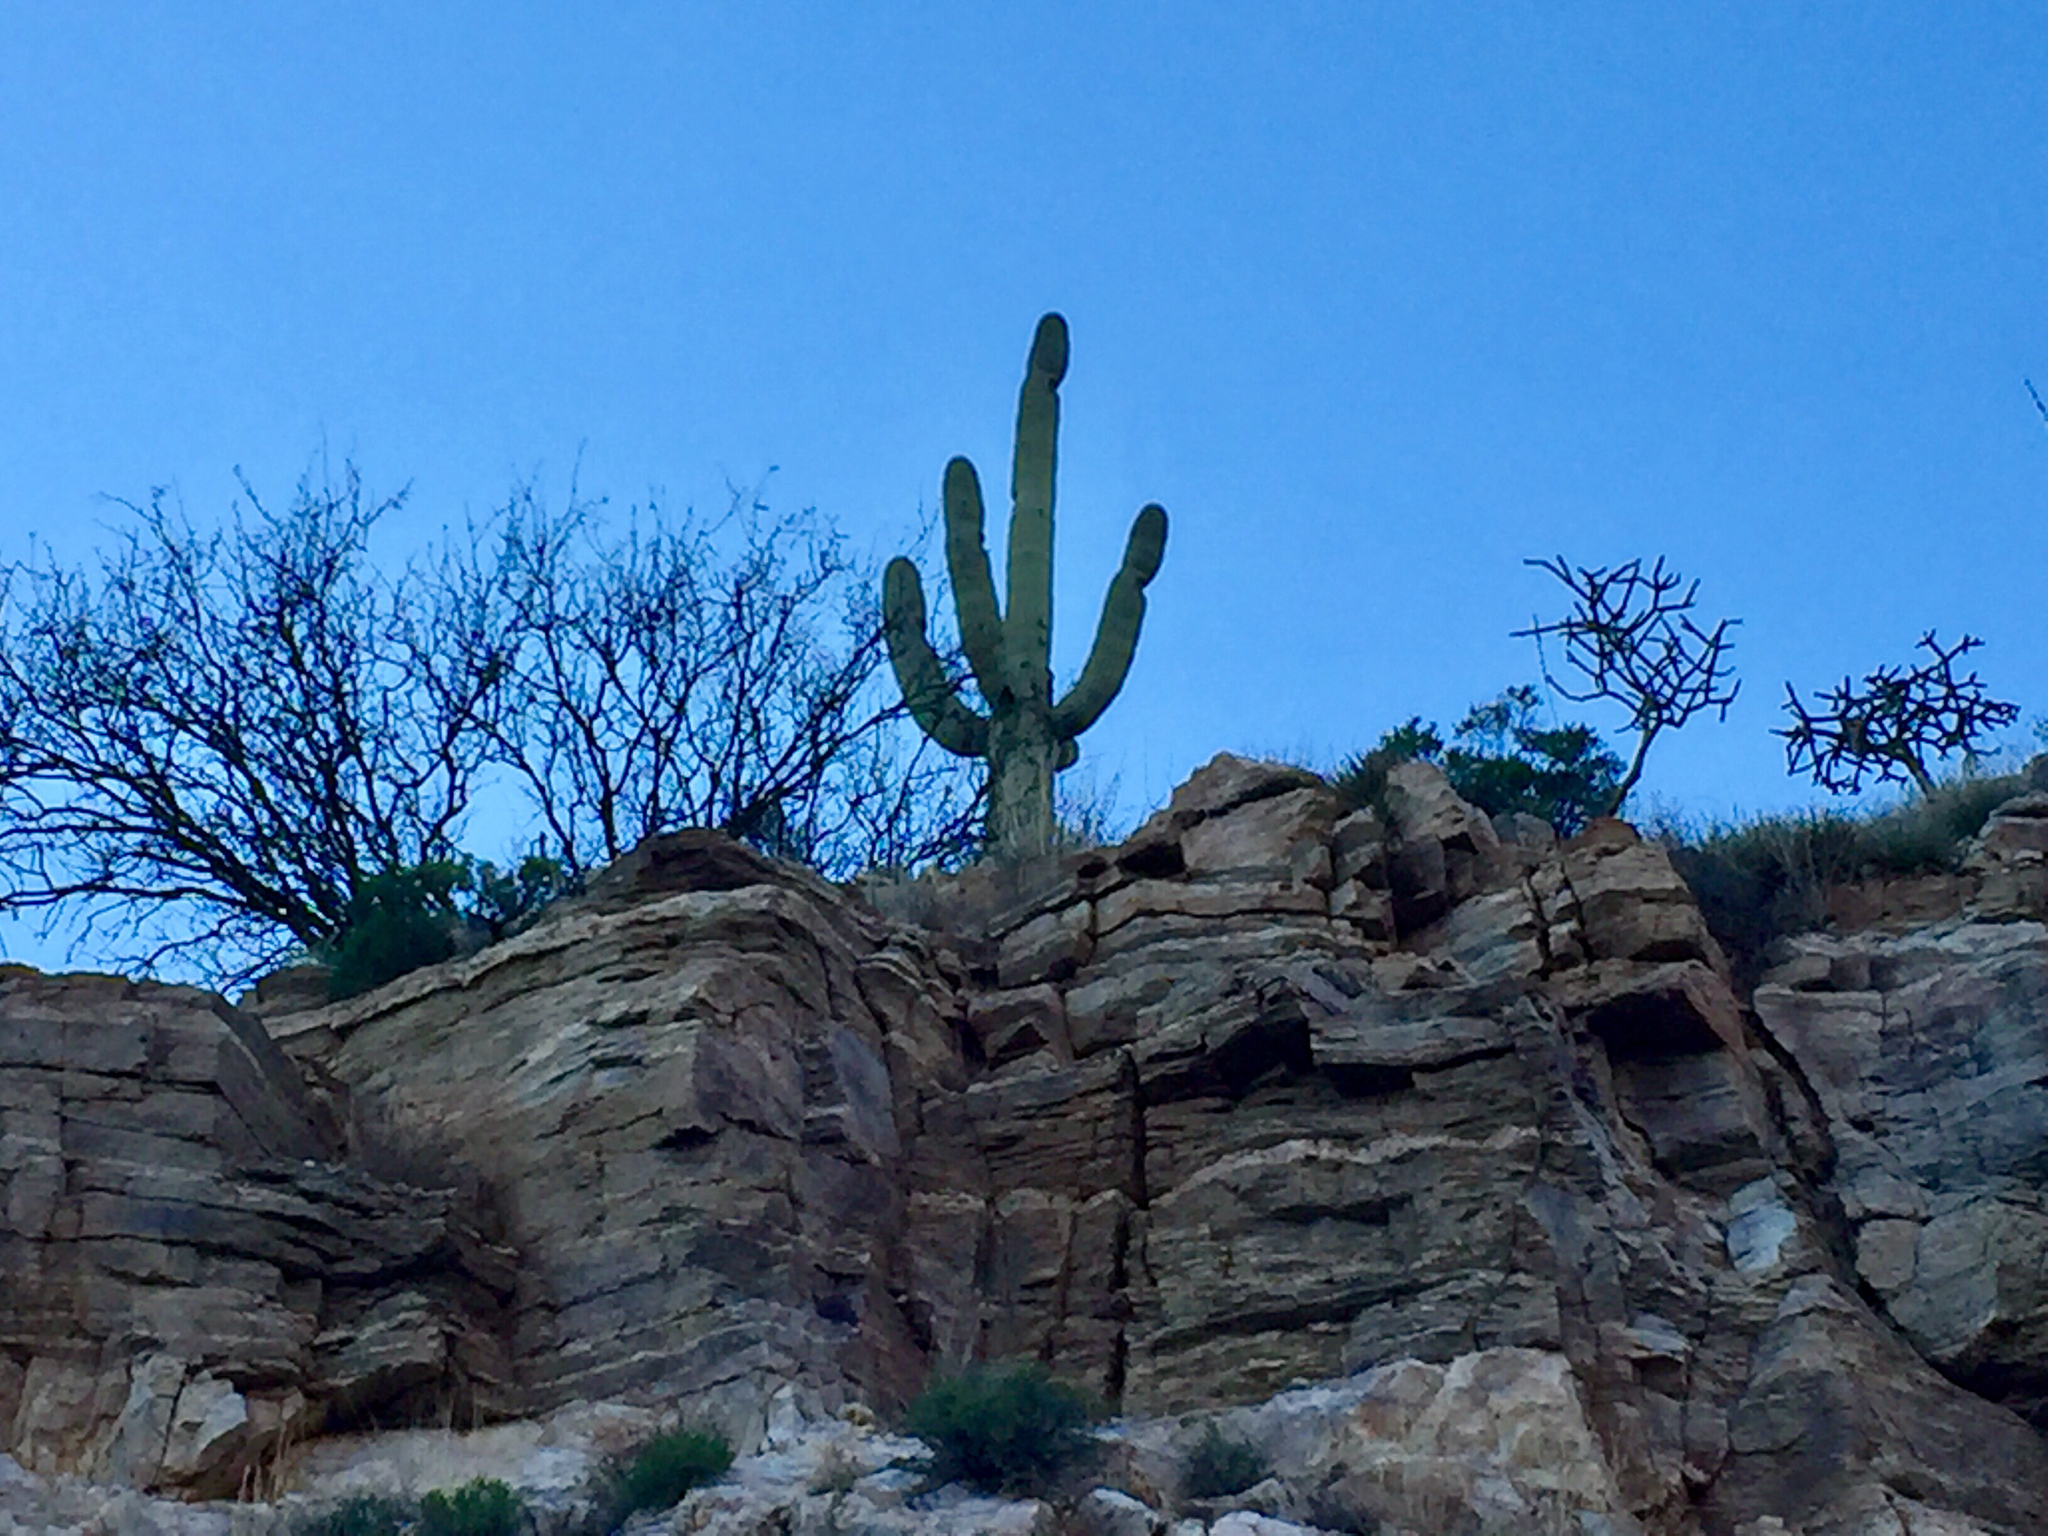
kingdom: Plantae
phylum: Tracheophyta
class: Magnoliopsida
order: Caryophyllales
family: Cactaceae
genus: Carnegiea
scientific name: Carnegiea gigantea
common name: Saguaro
